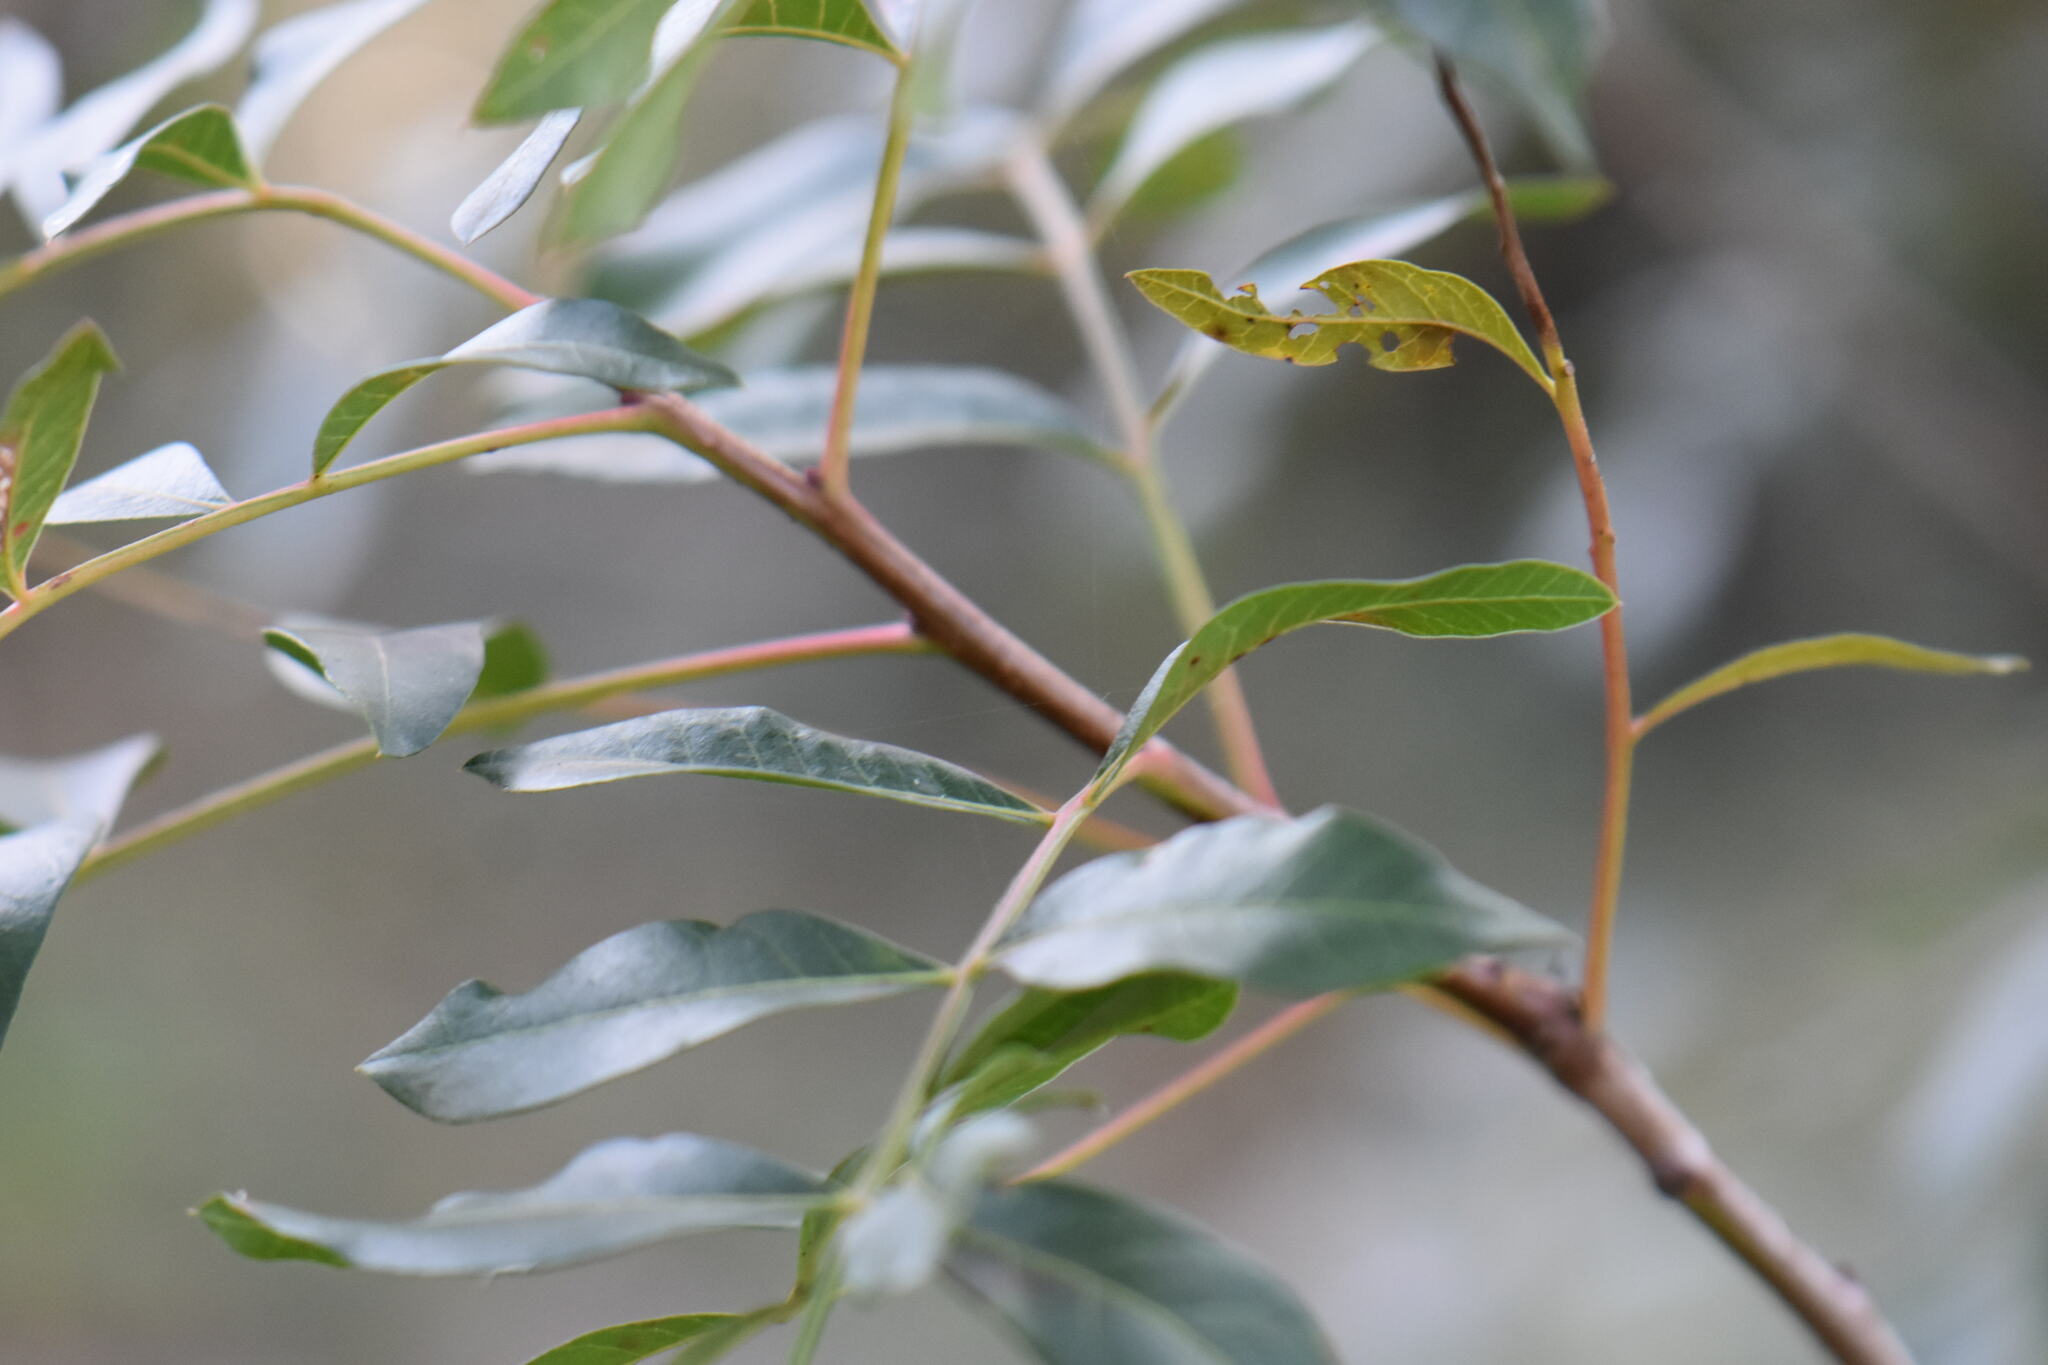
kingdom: Plantae
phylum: Tracheophyta
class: Magnoliopsida
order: Sapindales
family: Anacardiaceae
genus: Pistacia
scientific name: Pistacia saportae
